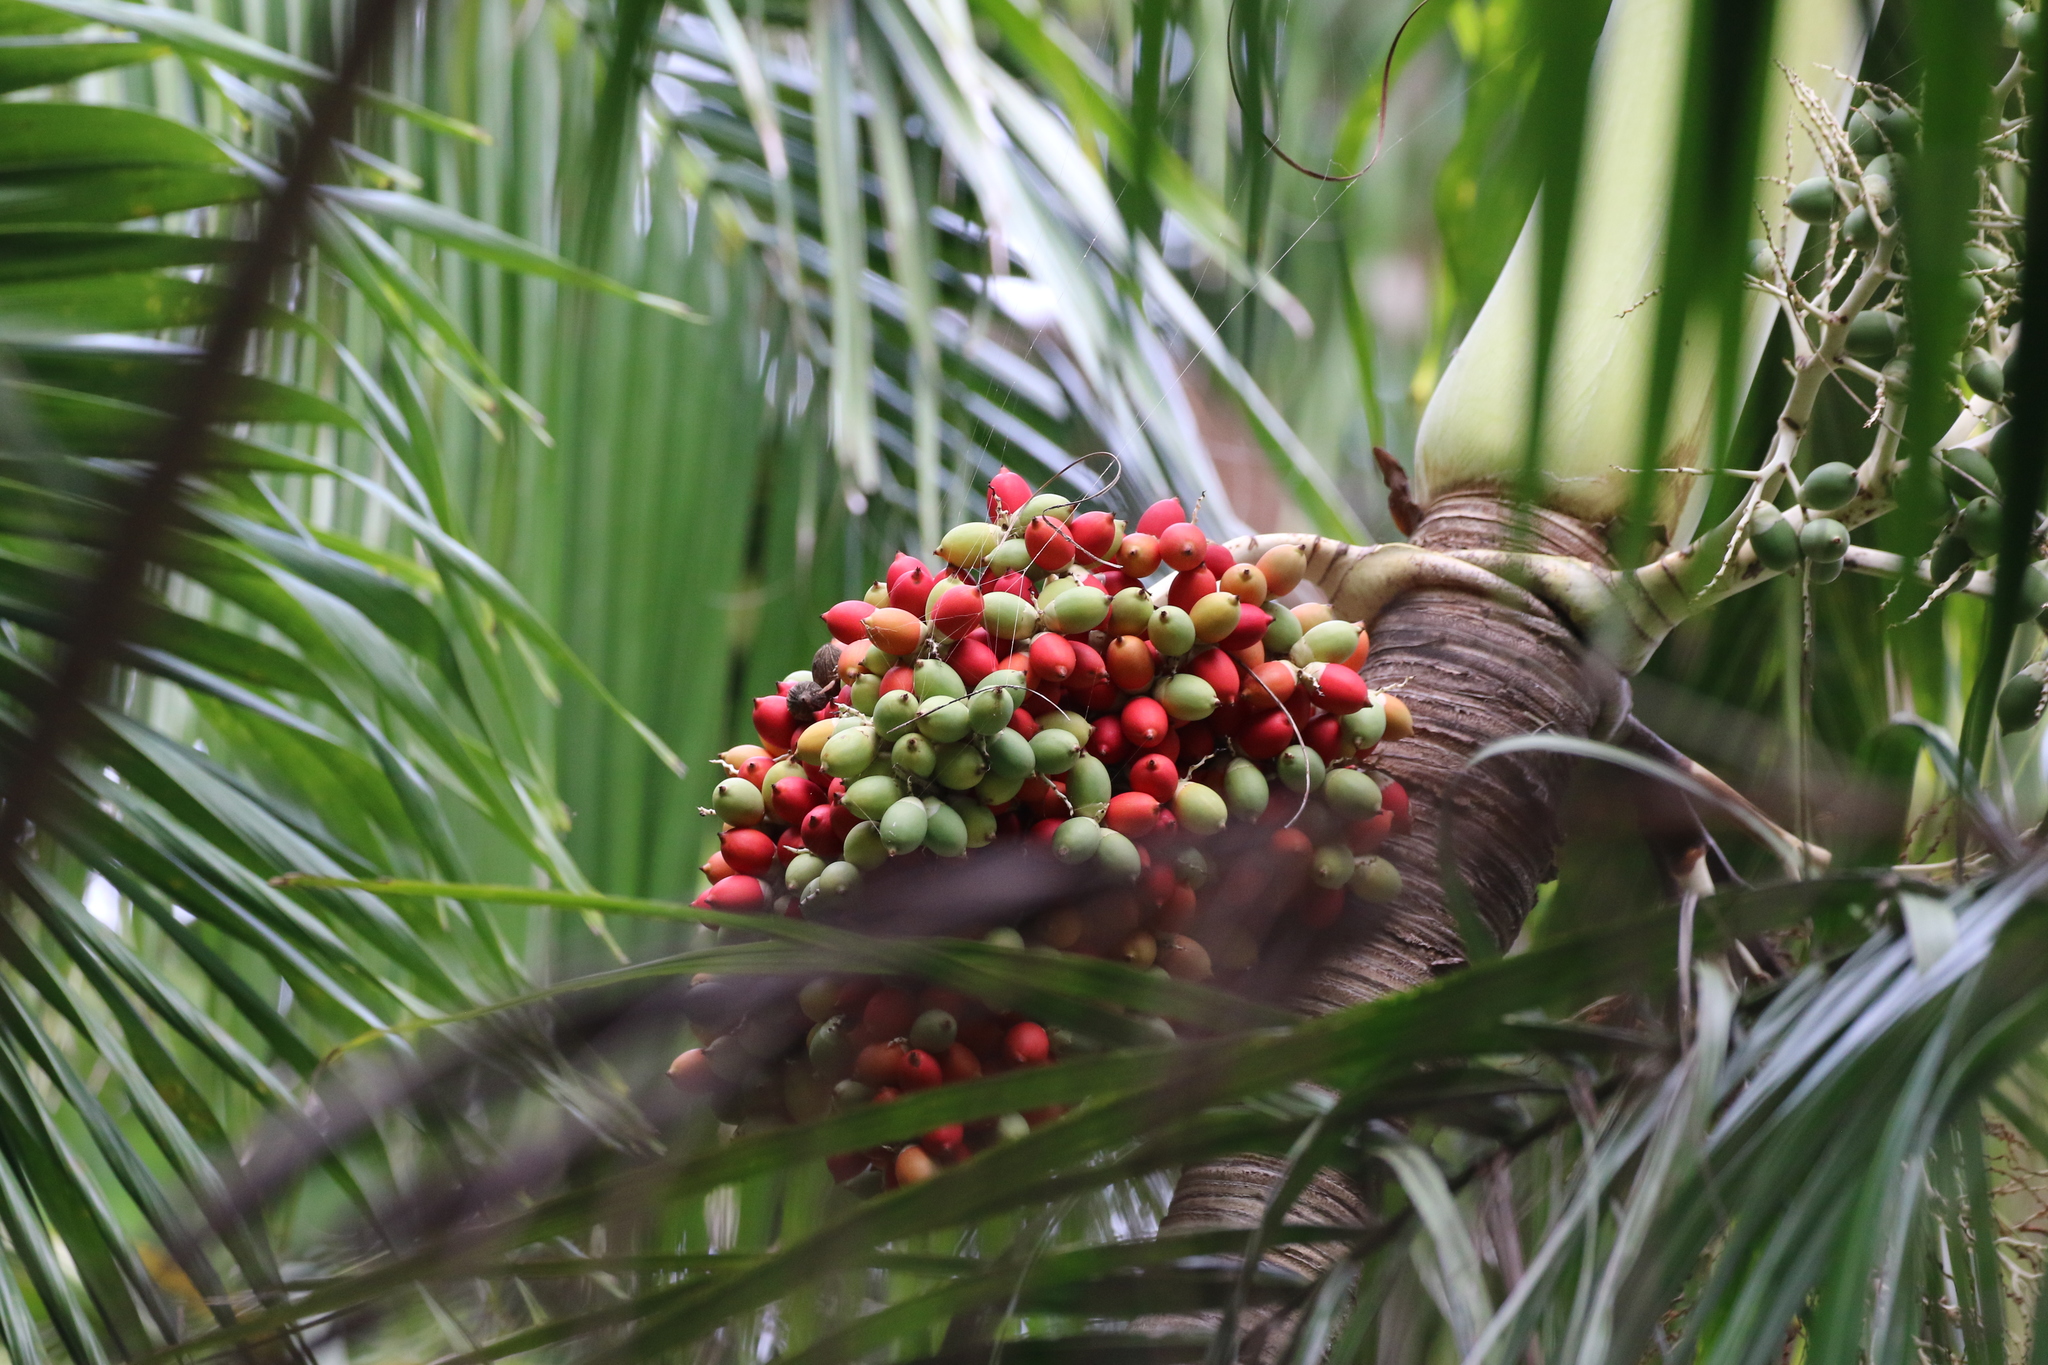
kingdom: Plantae
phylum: Tracheophyta
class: Liliopsida
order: Arecales
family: Arecaceae
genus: Adonidia
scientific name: Adonidia merrillii
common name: Manila palm
